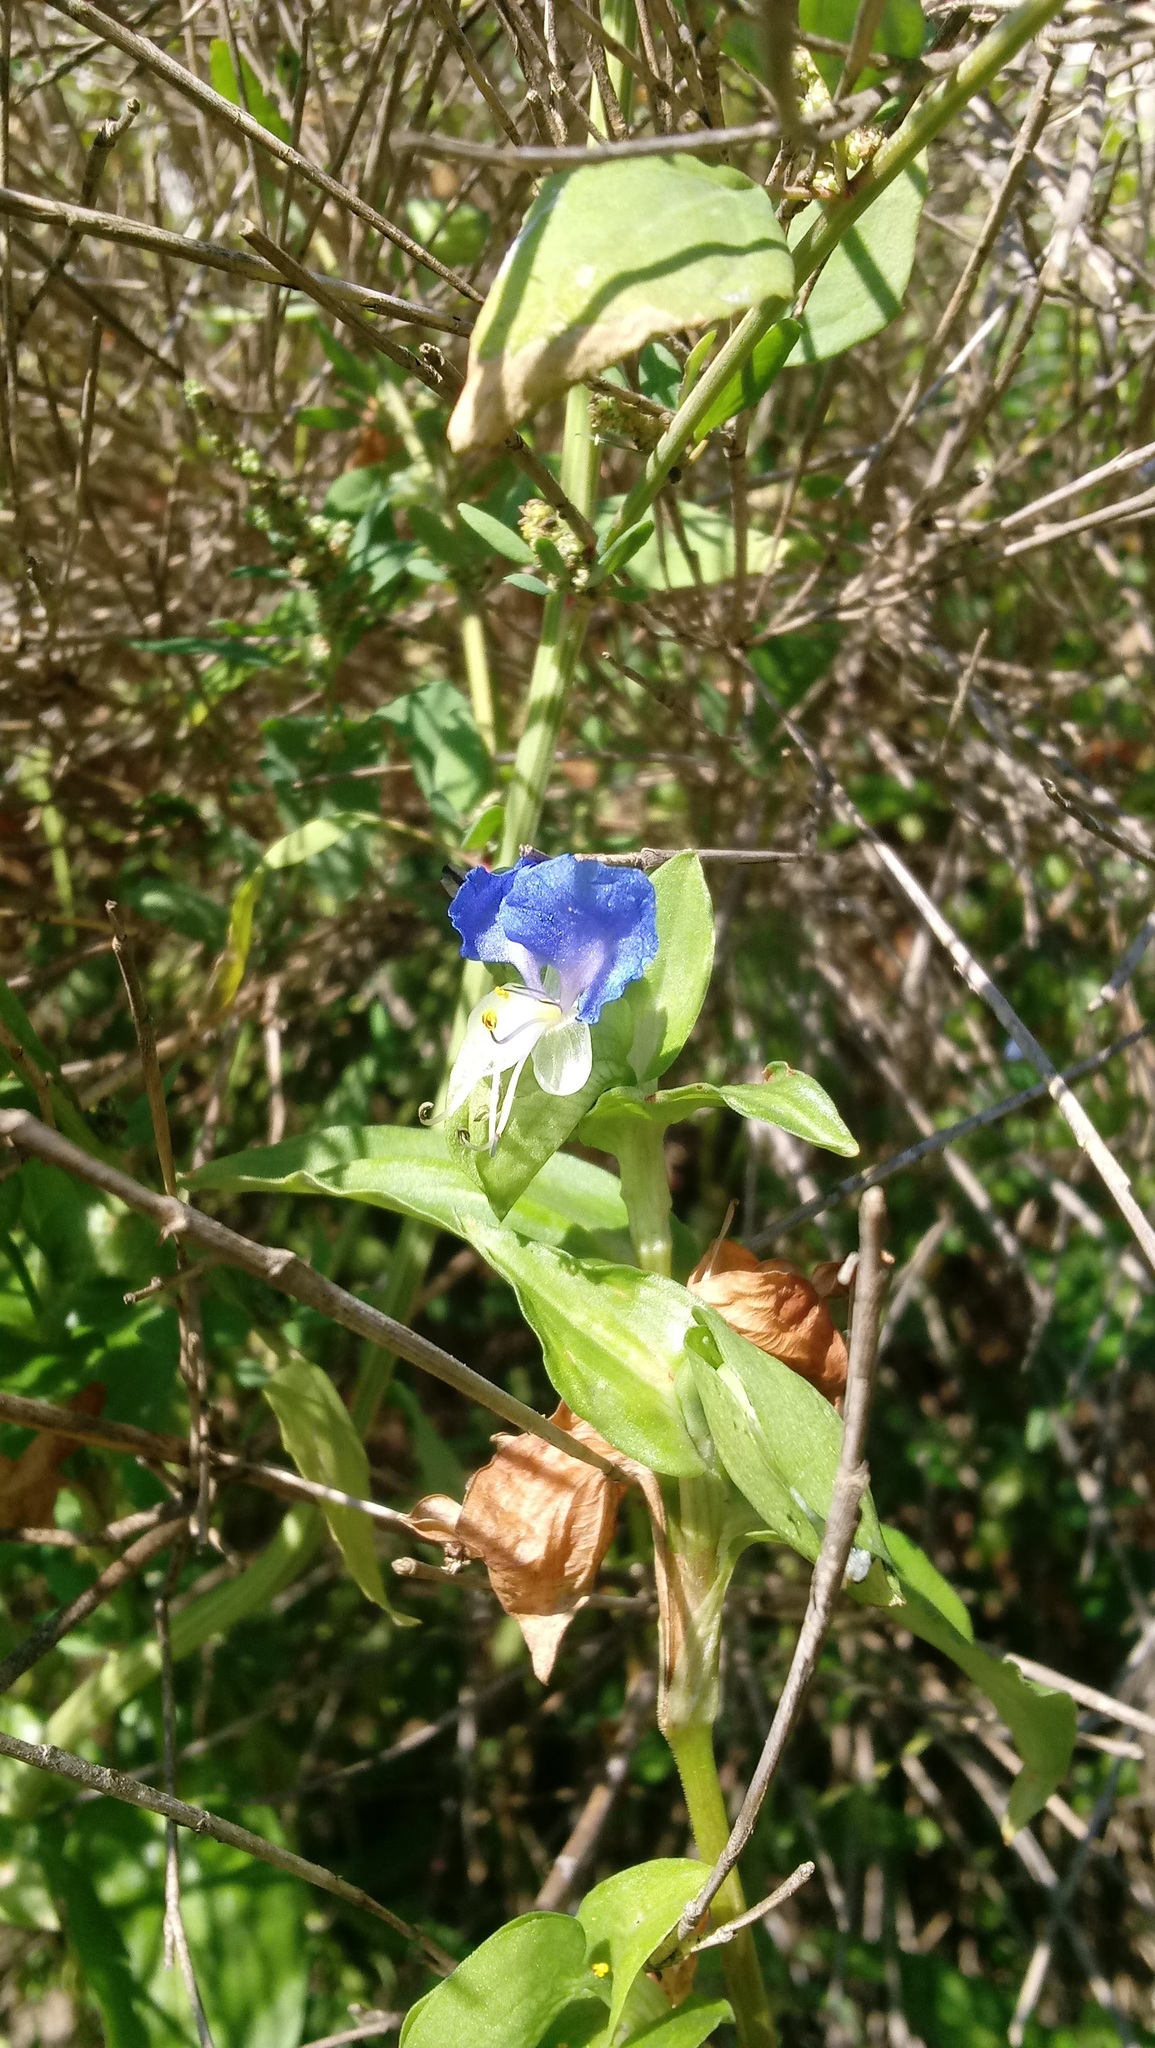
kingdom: Plantae
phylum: Tracheophyta
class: Liliopsida
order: Commelinales
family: Commelinaceae
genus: Commelina
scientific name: Commelina communis
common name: Asiatic dayflower
